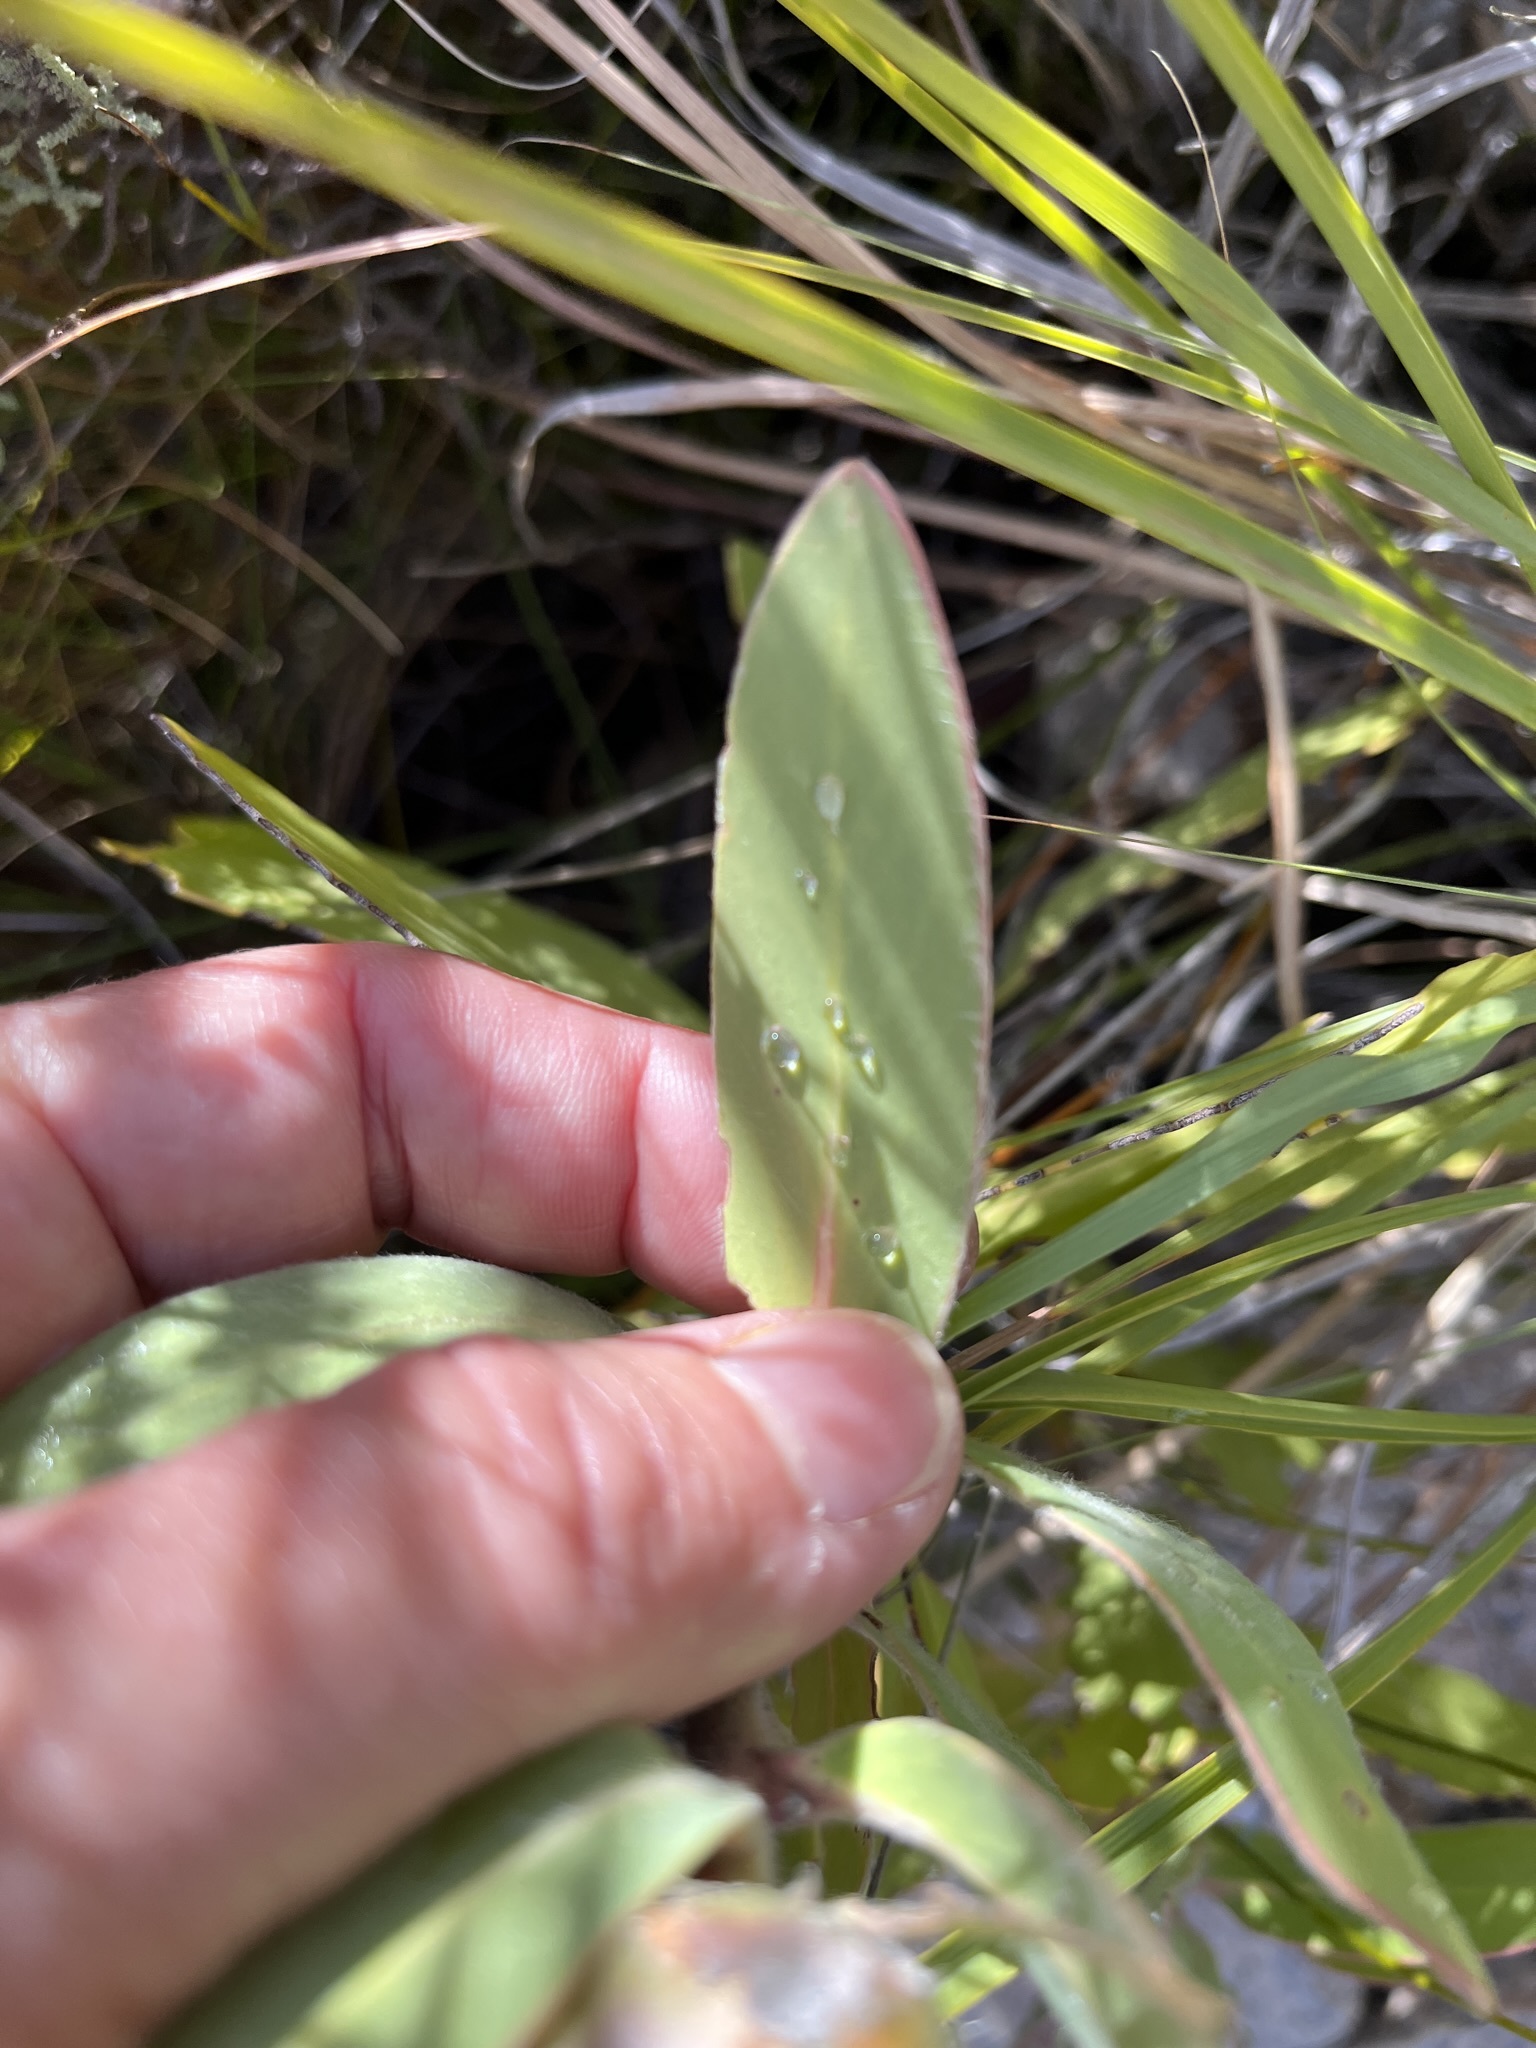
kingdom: Plantae
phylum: Tracheophyta
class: Magnoliopsida
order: Proteales
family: Proteaceae
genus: Protea
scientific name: Protea lacticolor
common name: Hottentot sugarbush
